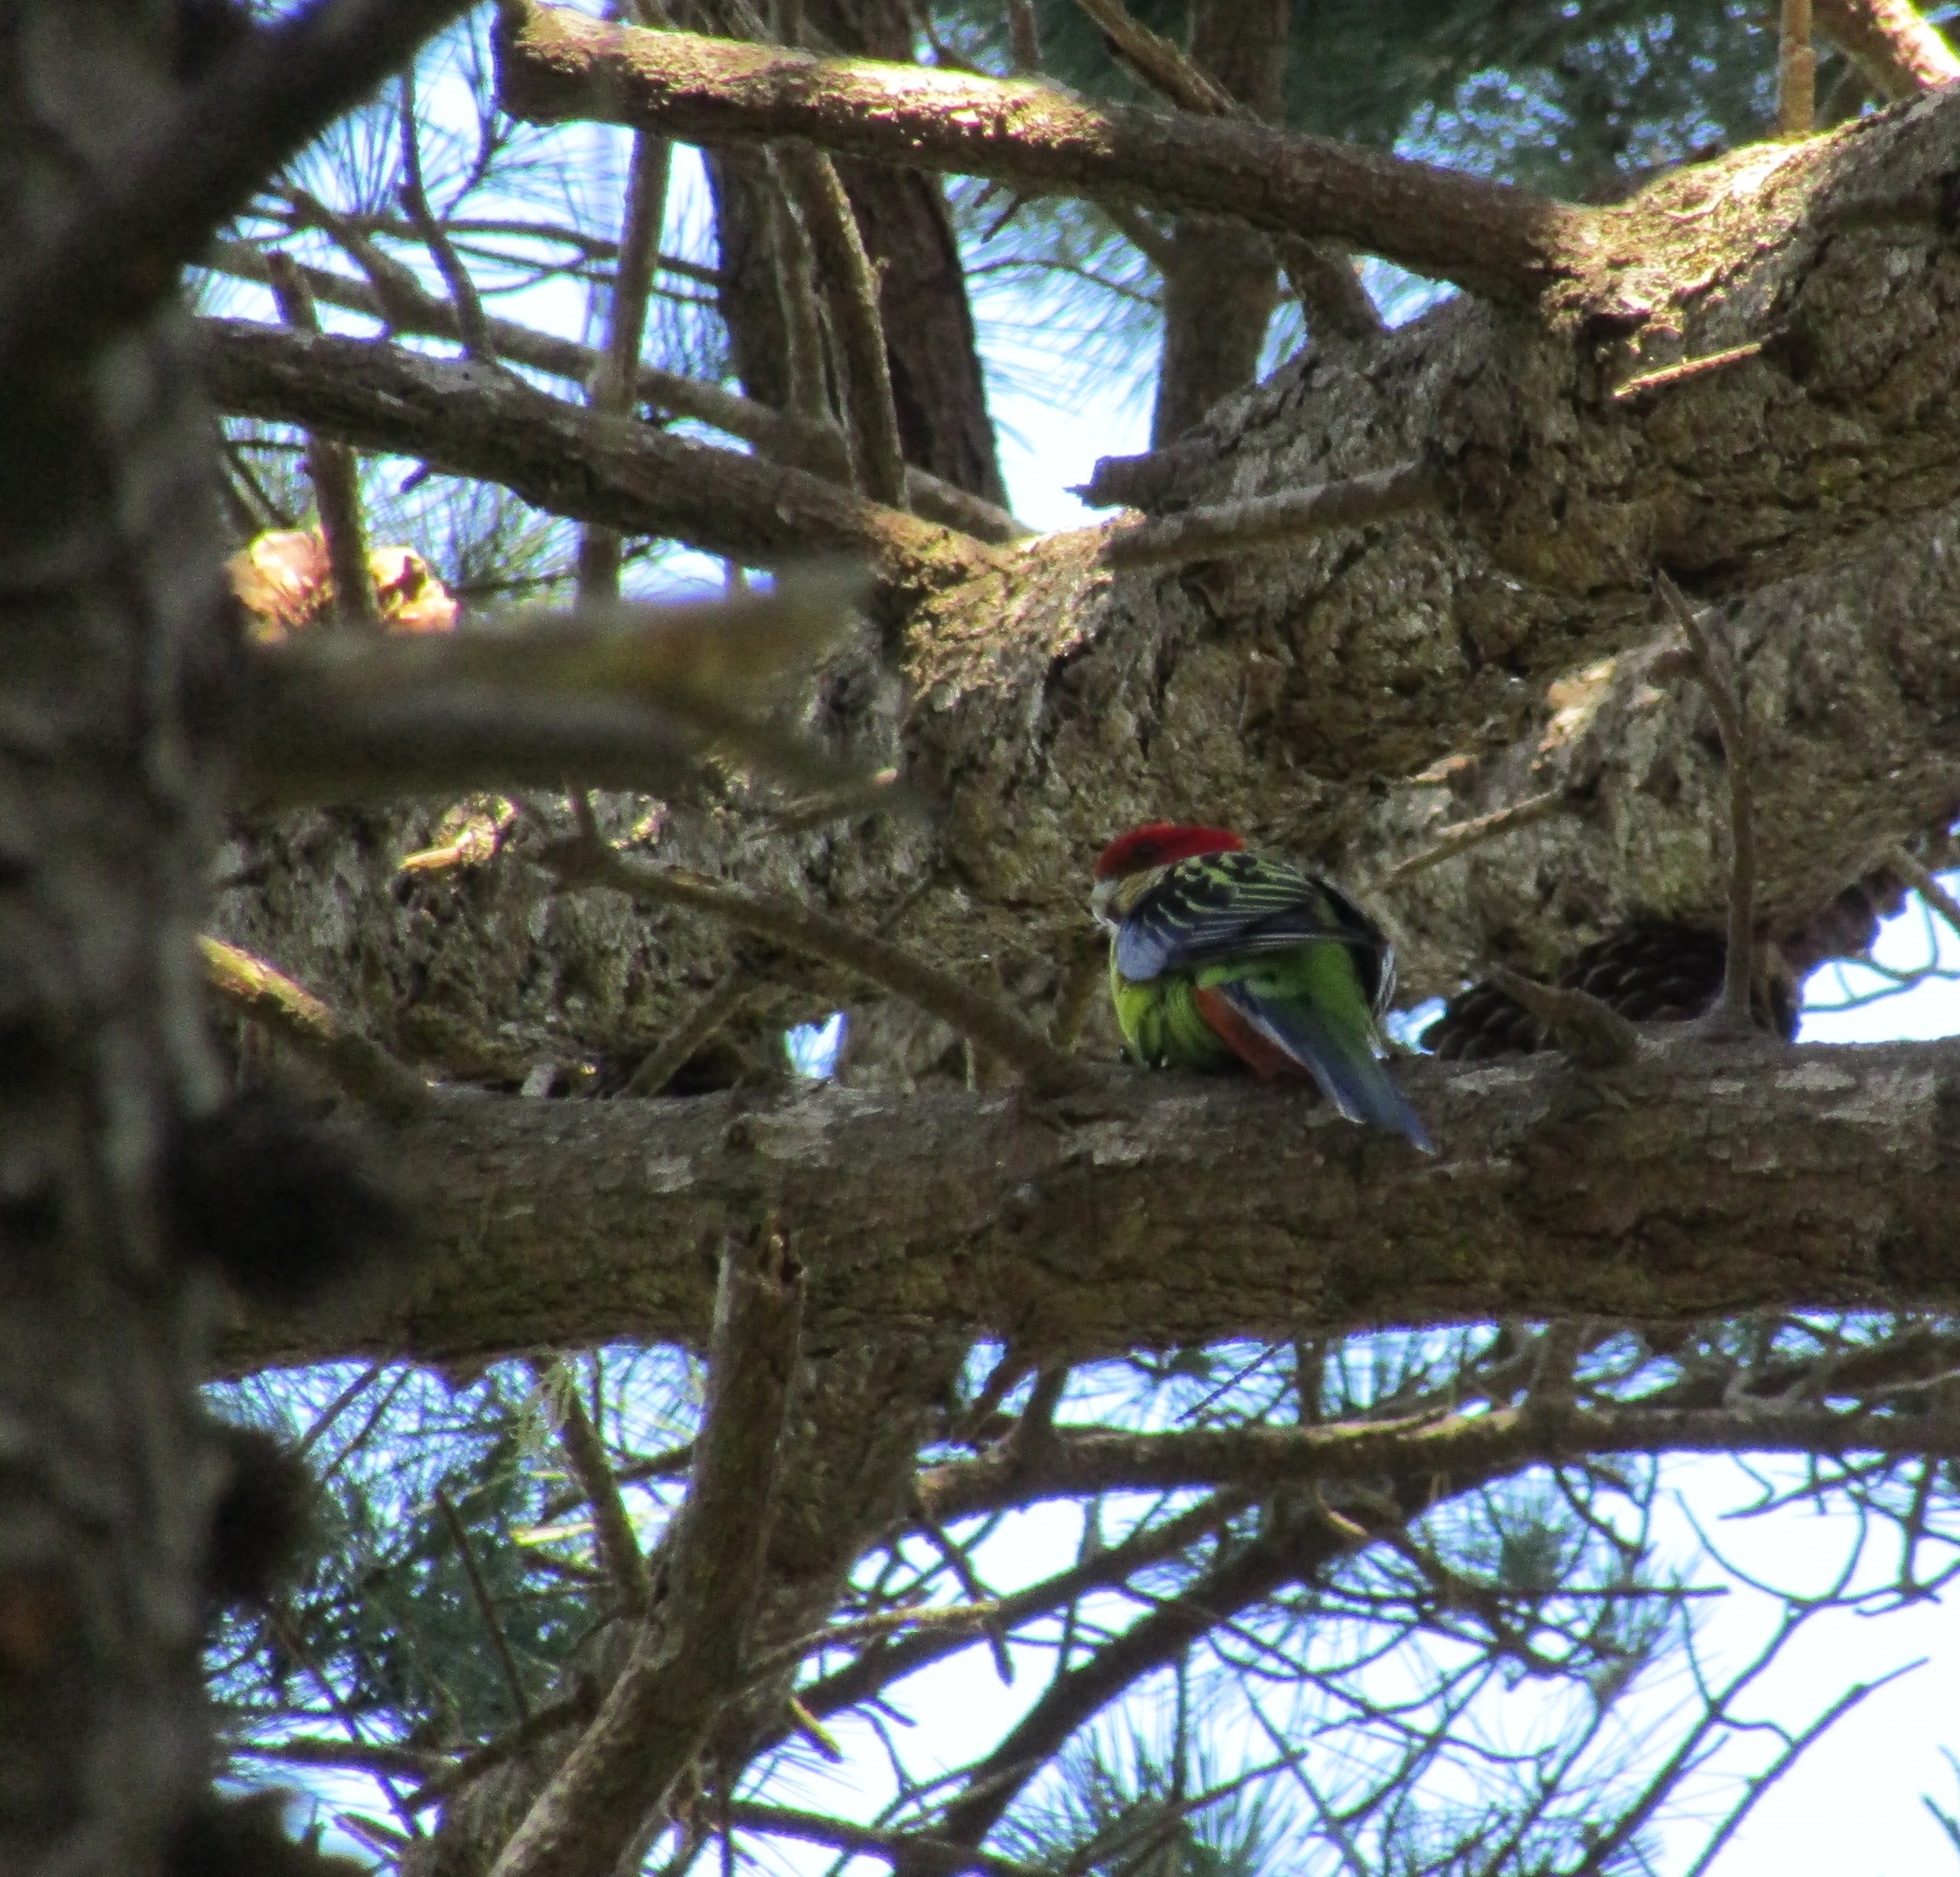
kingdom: Animalia
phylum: Chordata
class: Aves
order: Psittaciformes
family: Psittacidae
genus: Platycercus
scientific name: Platycercus eximius
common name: Eastern rosella
